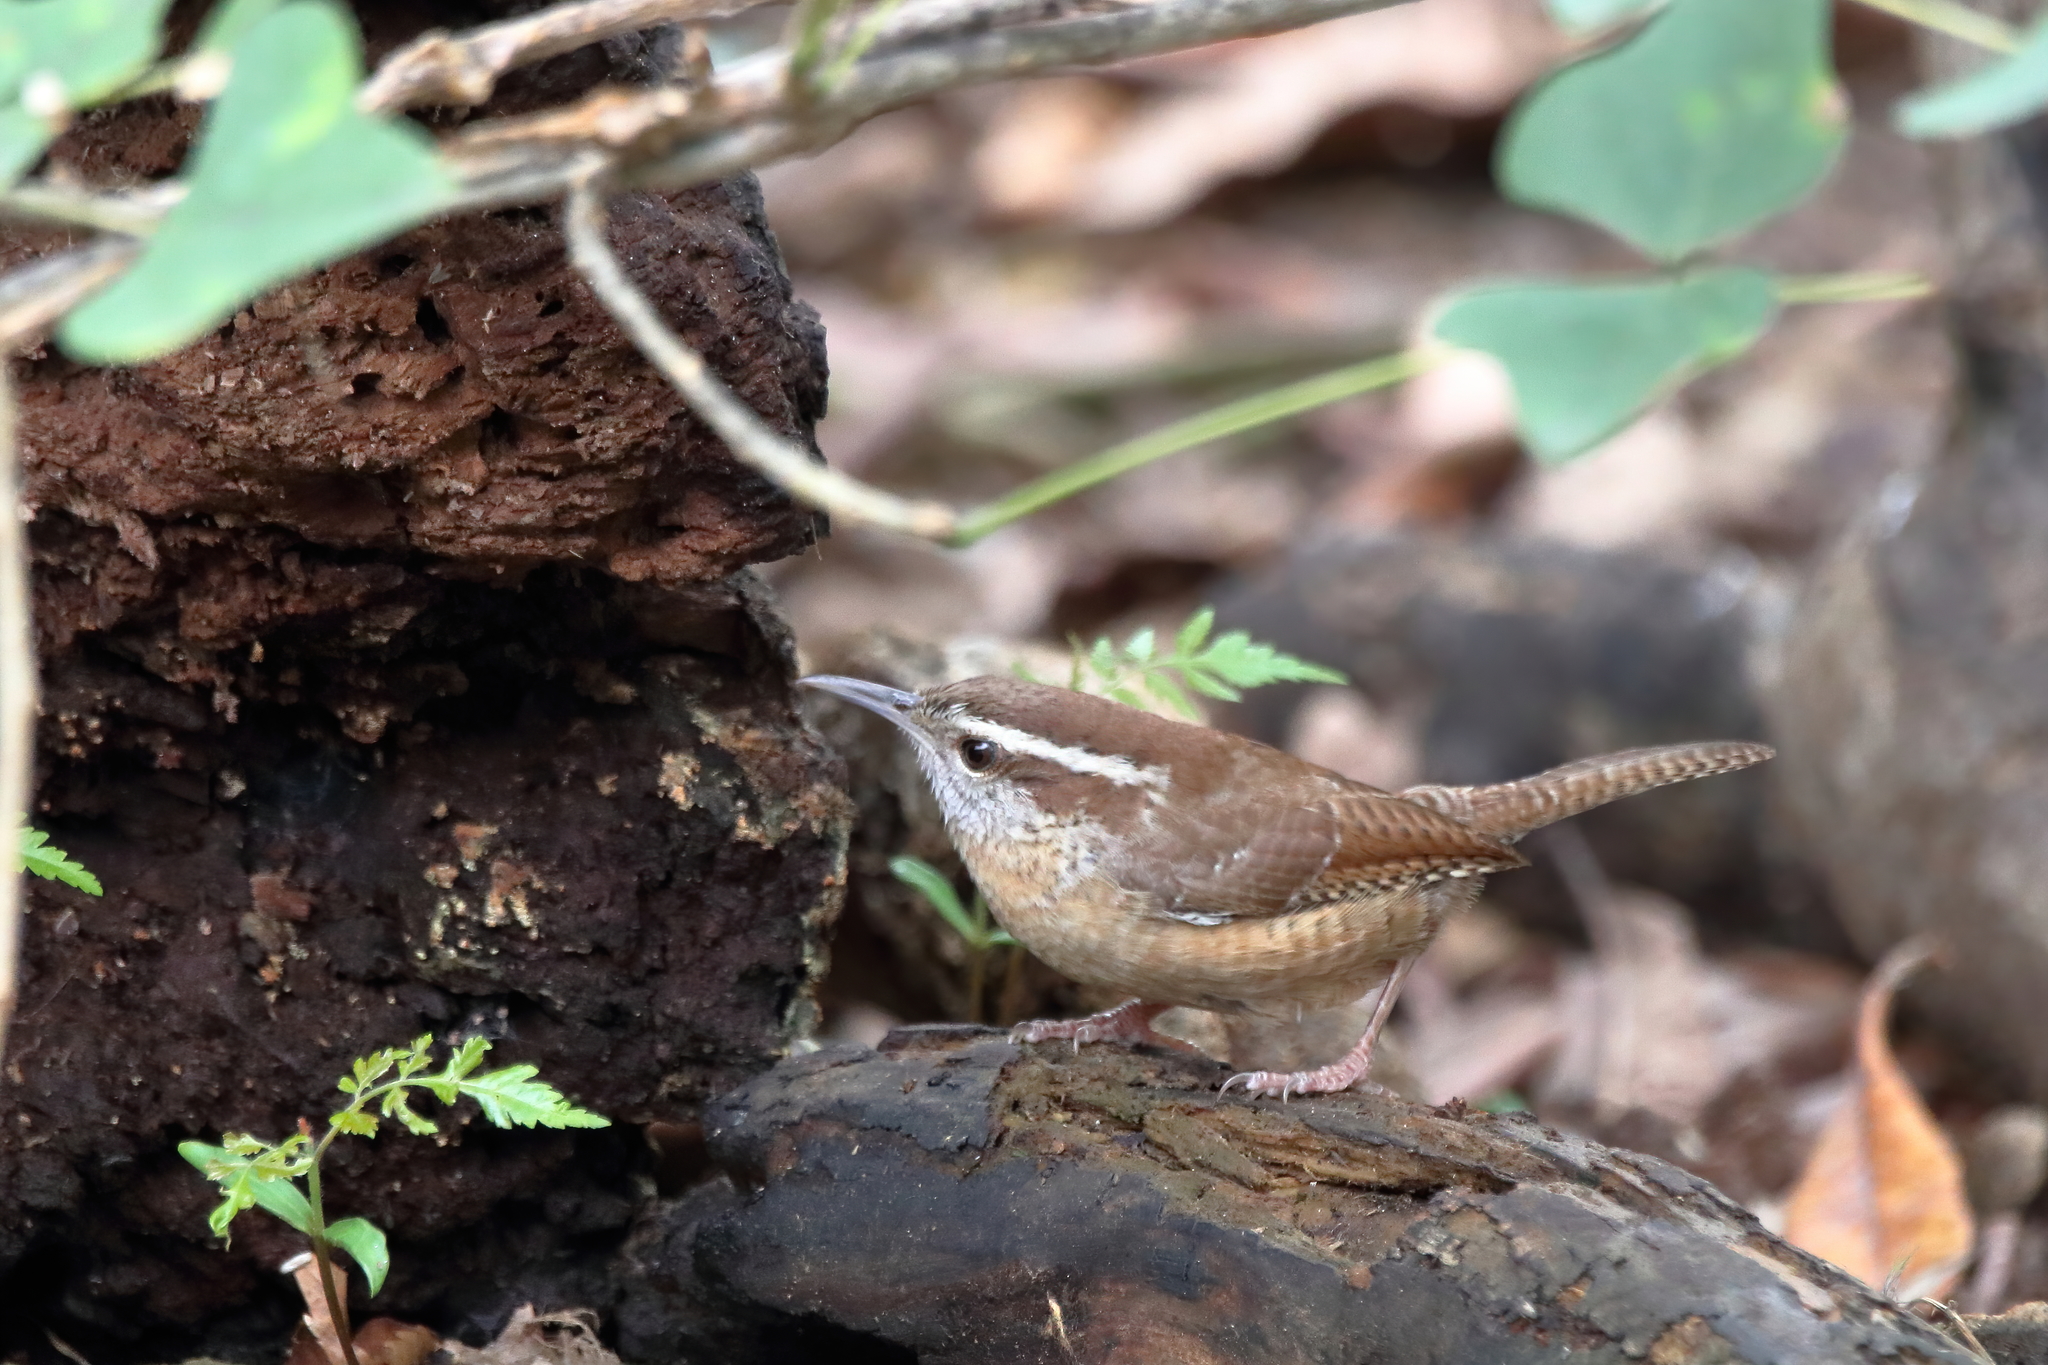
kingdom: Animalia
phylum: Chordata
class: Aves
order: Passeriformes
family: Troglodytidae
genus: Thryothorus
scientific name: Thryothorus ludovicianus
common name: Carolina wren
